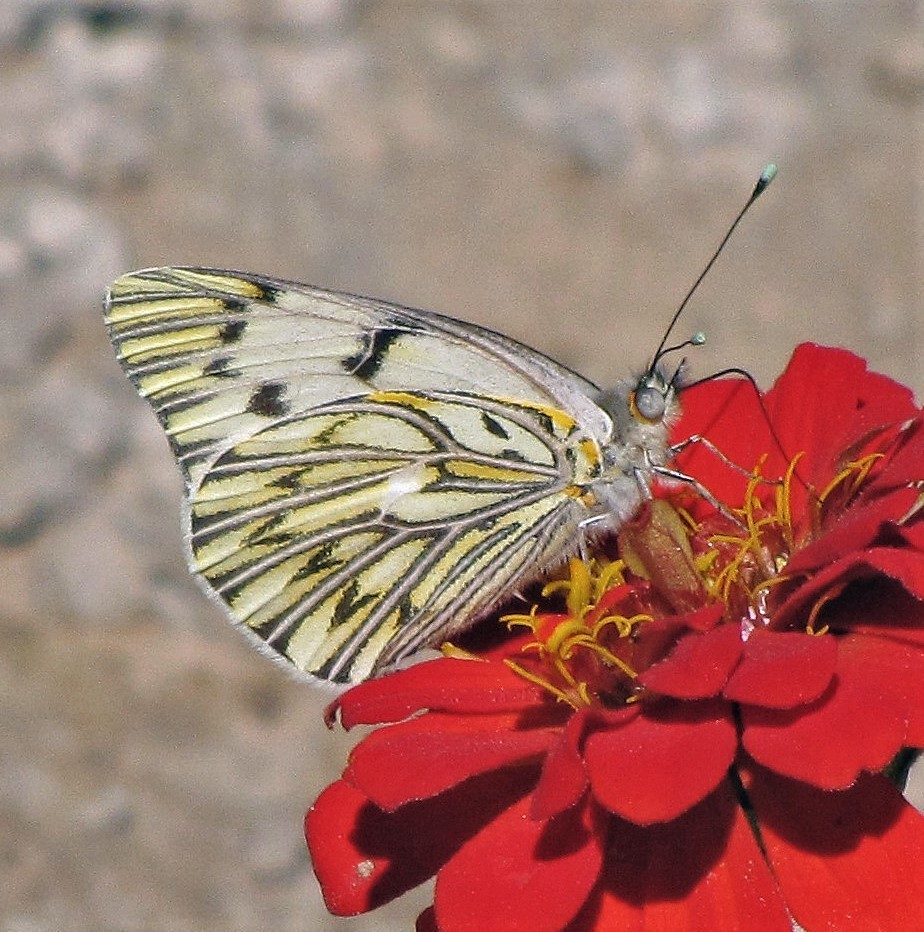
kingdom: Animalia
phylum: Arthropoda
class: Insecta
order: Lepidoptera
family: Pieridae
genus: Tatochila
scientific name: Tatochila autodice
